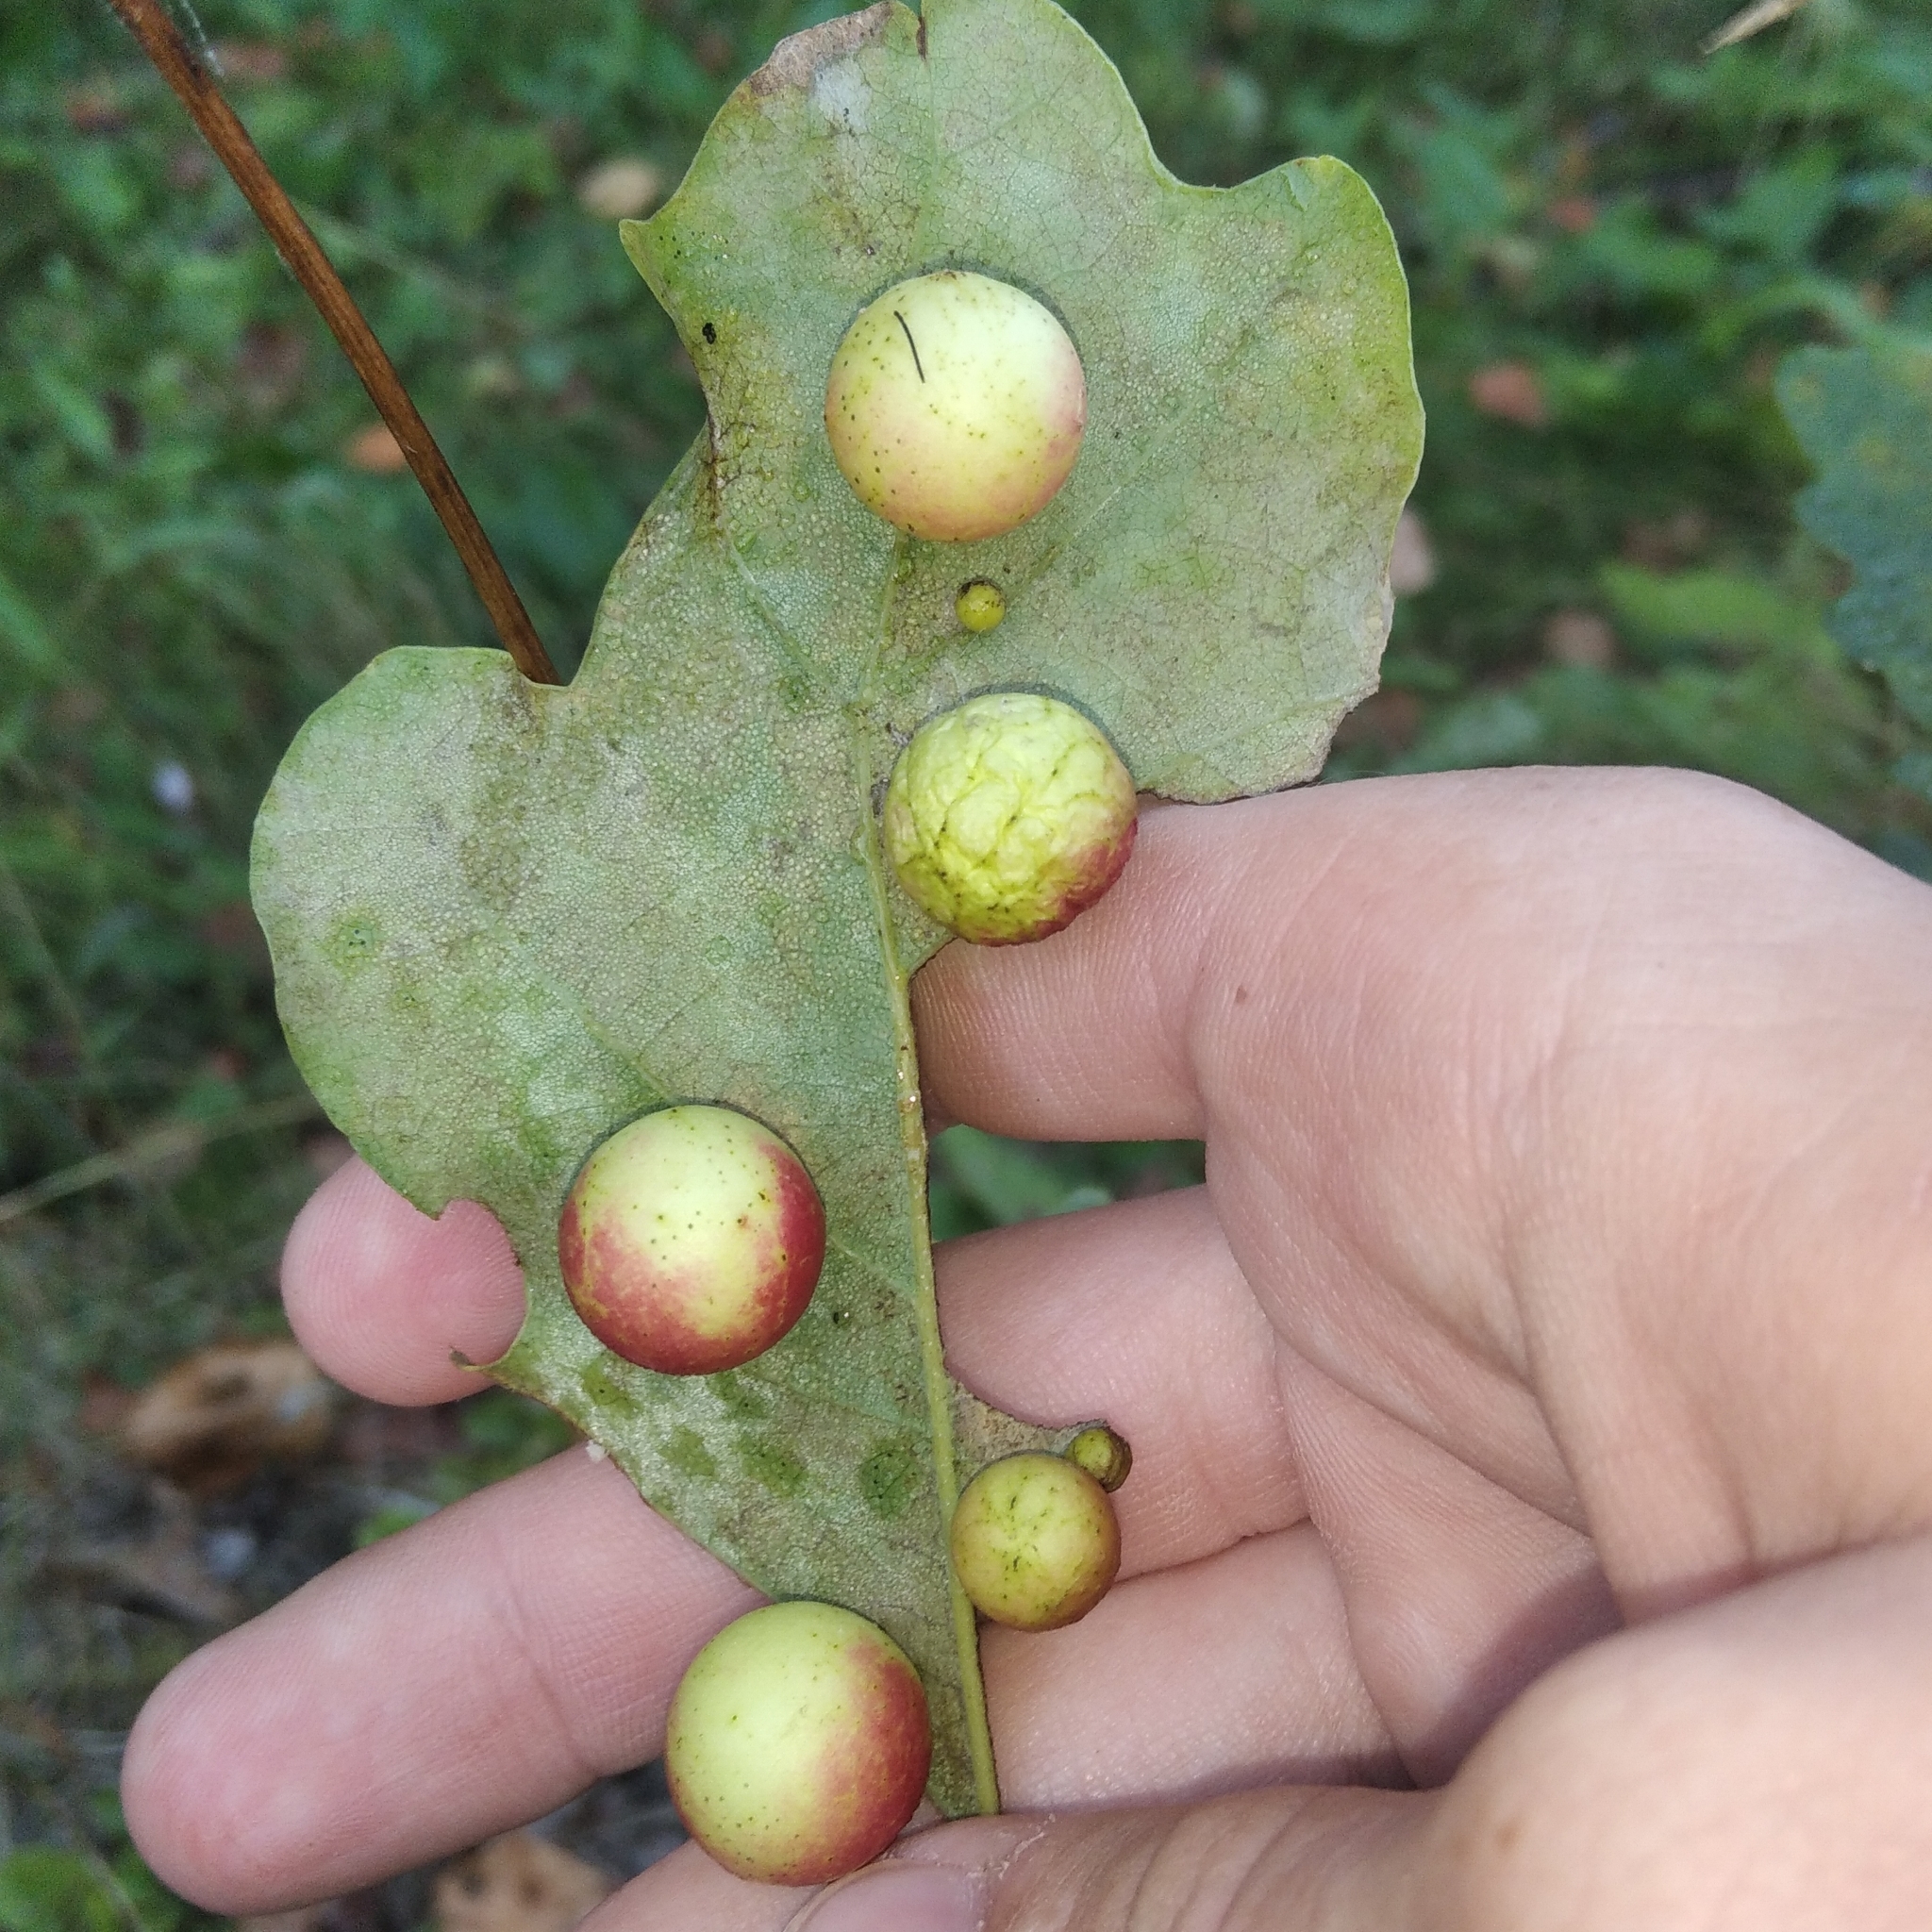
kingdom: Animalia
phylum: Arthropoda
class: Insecta
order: Hymenoptera
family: Cynipidae
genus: Cynips
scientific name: Cynips quercusfolii
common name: Cherry gall
